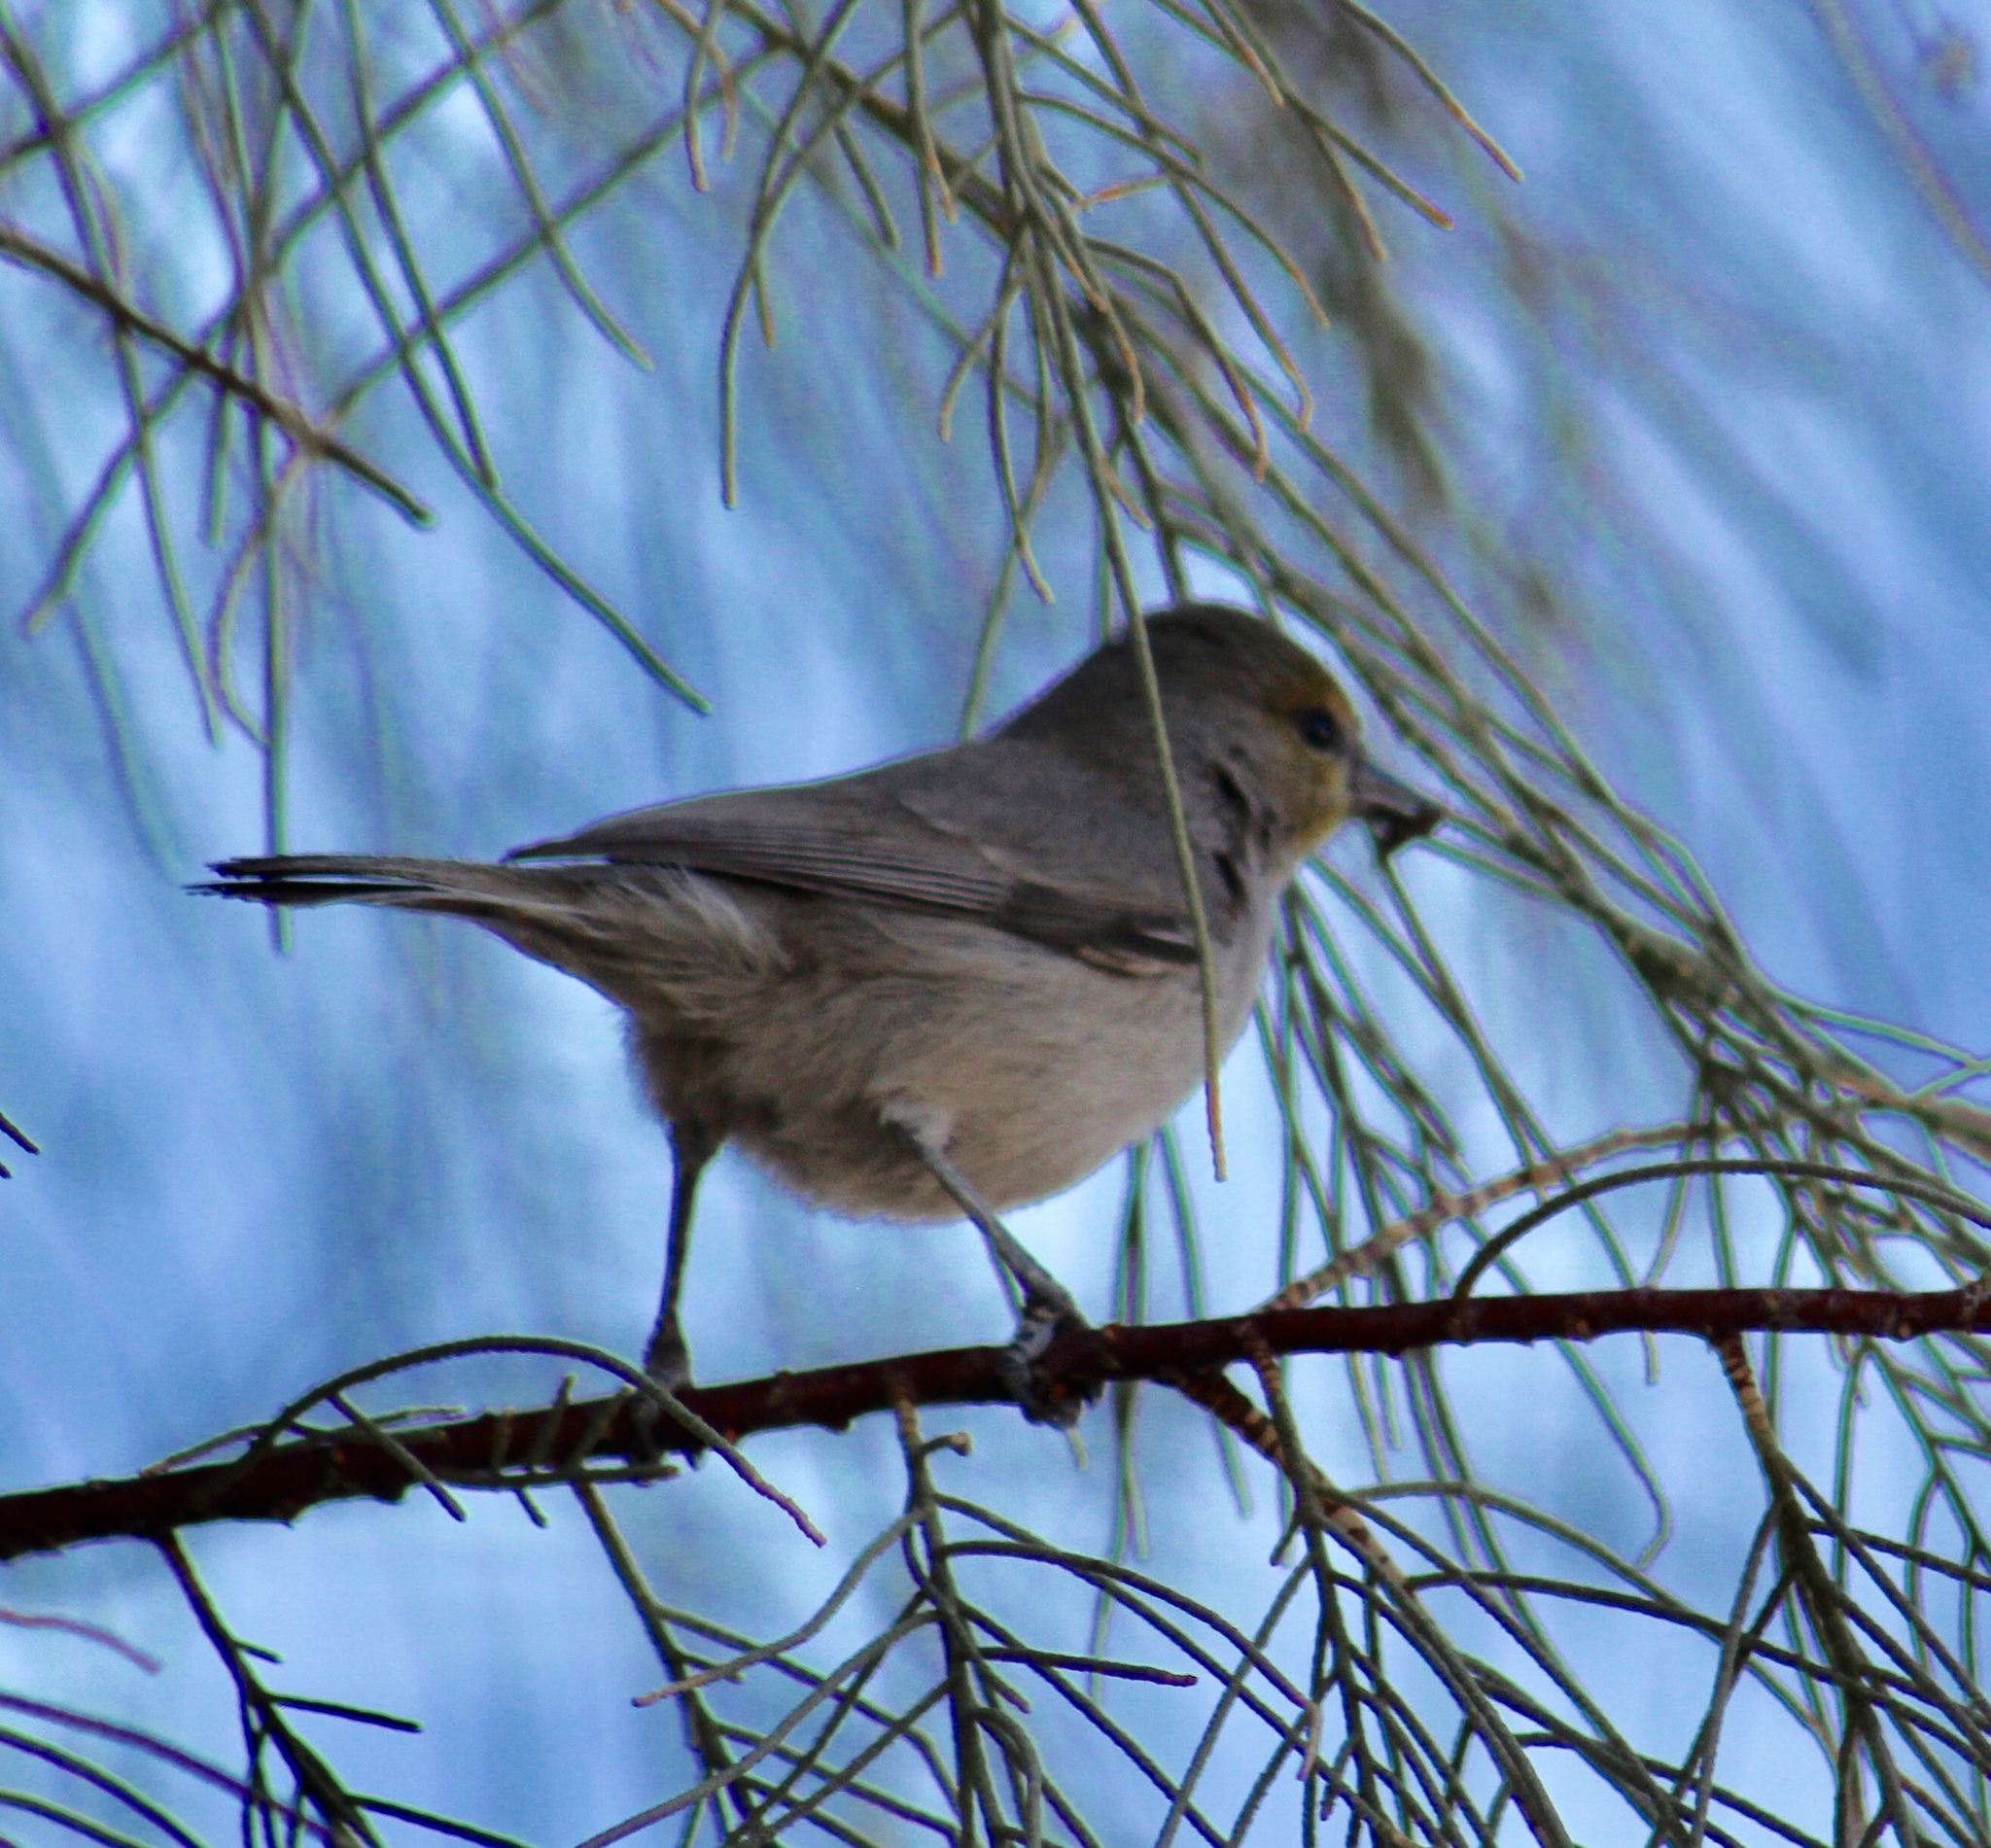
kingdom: Animalia
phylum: Chordata
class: Aves
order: Passeriformes
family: Remizidae
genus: Auriparus
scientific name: Auriparus flaviceps
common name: Verdin
